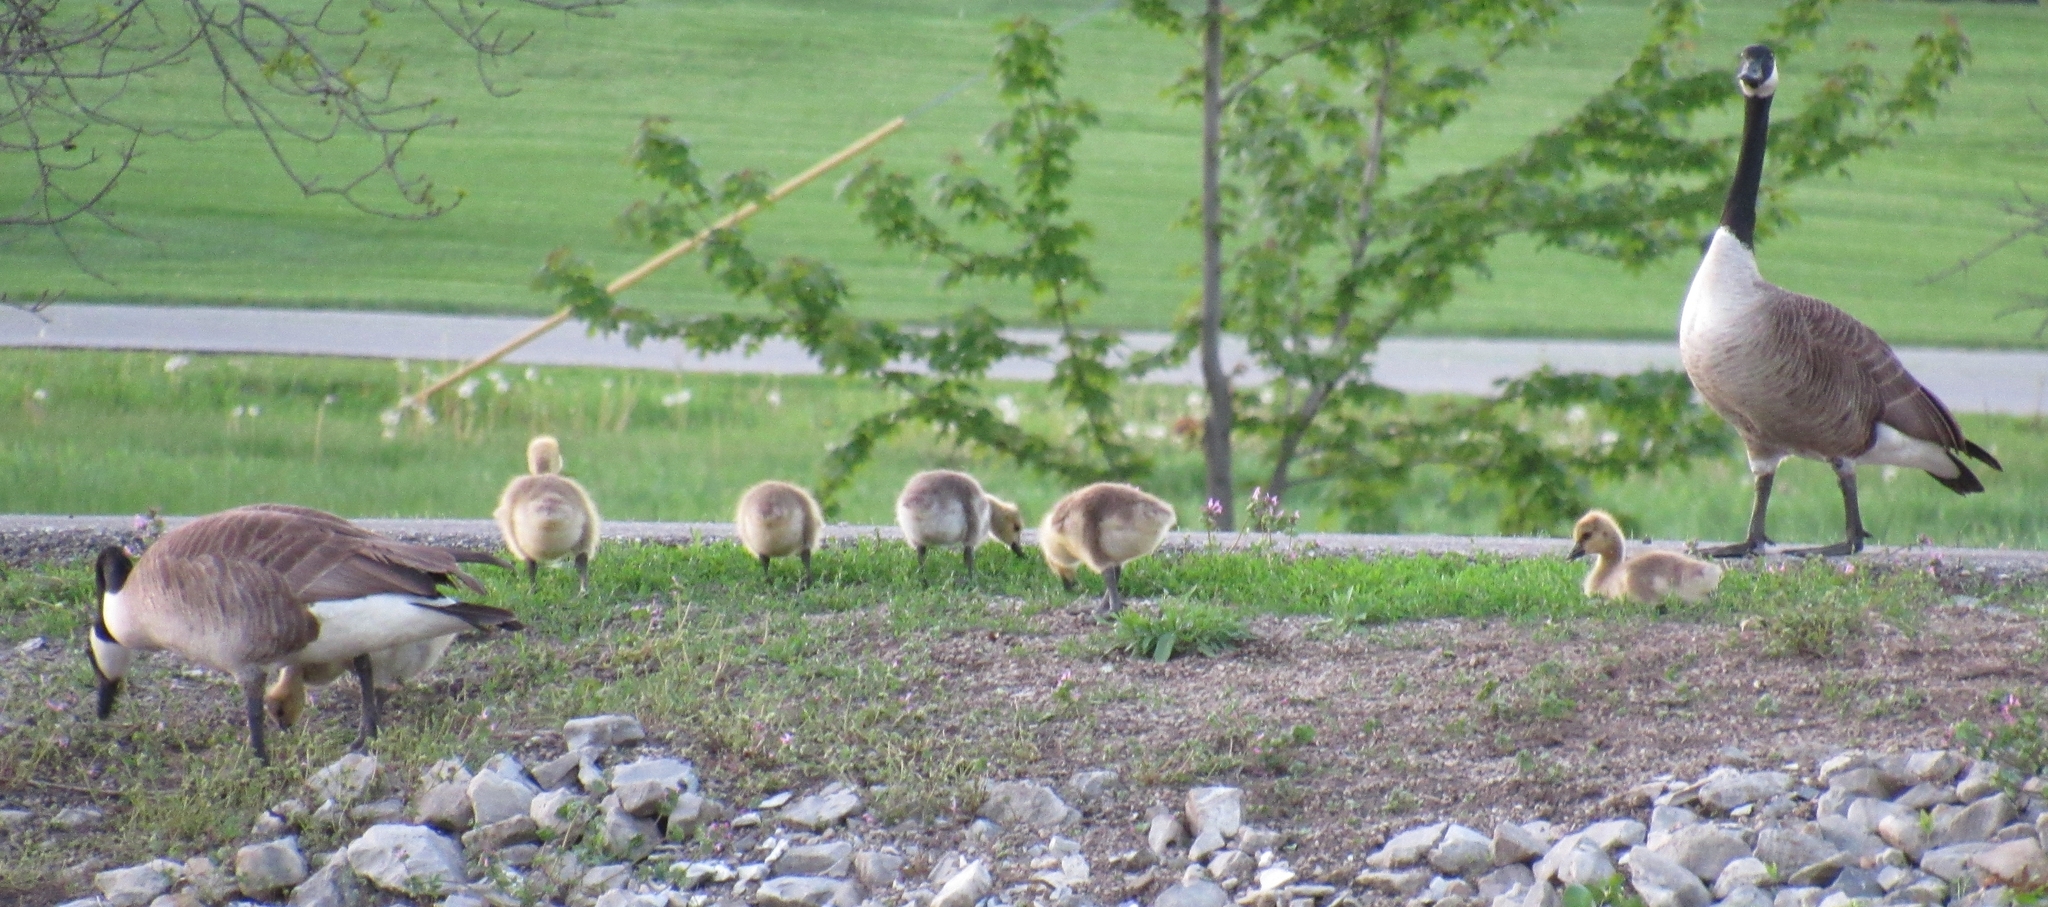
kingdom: Animalia
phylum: Chordata
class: Aves
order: Anseriformes
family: Anatidae
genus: Branta
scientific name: Branta canadensis
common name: Canada goose
